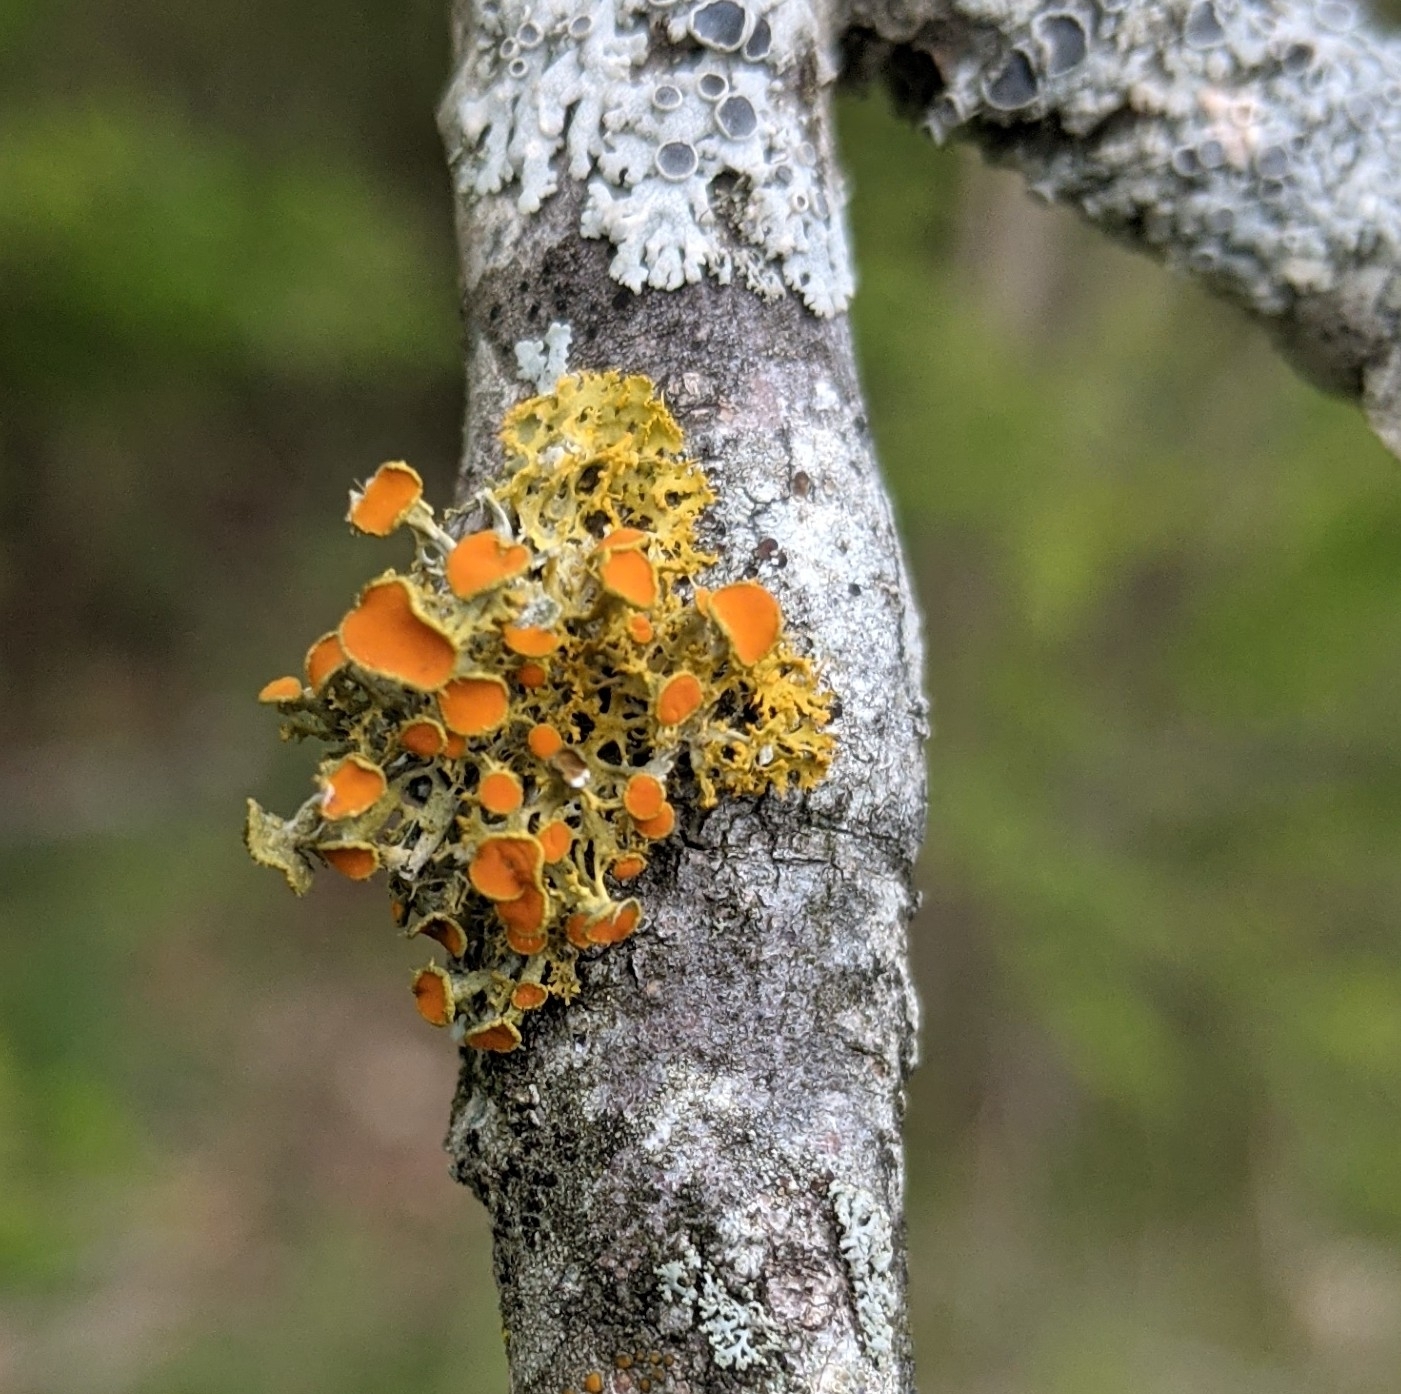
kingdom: Fungi
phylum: Ascomycota
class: Lecanoromycetes
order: Teloschistales
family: Teloschistaceae
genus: Niorma
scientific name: Niorma chrysophthalma
